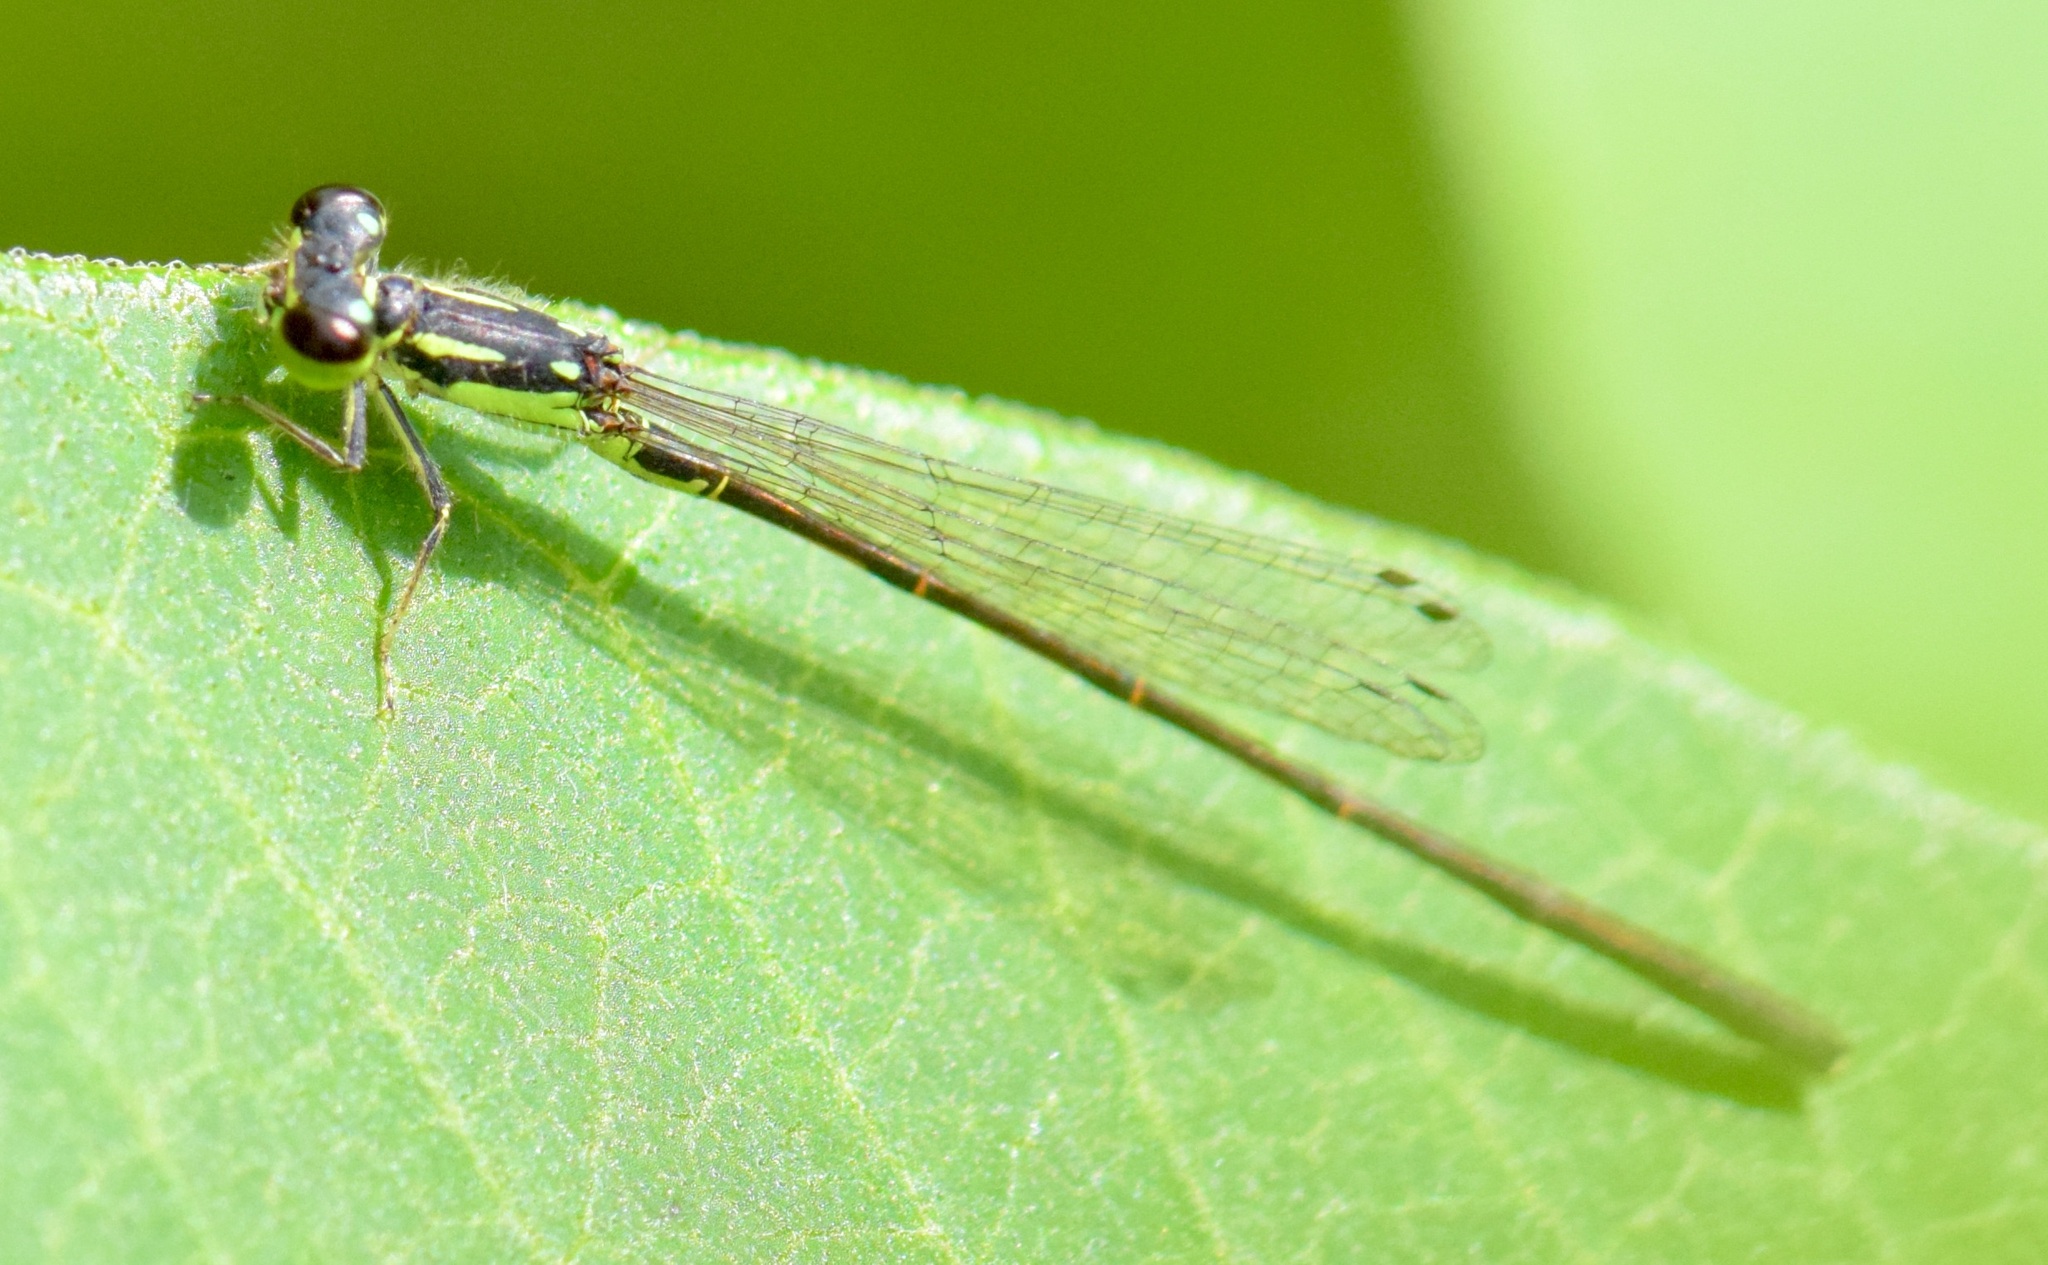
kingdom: Animalia
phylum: Arthropoda
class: Insecta
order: Odonata
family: Coenagrionidae
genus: Ischnura
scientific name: Ischnura posita
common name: Fragile forktail
